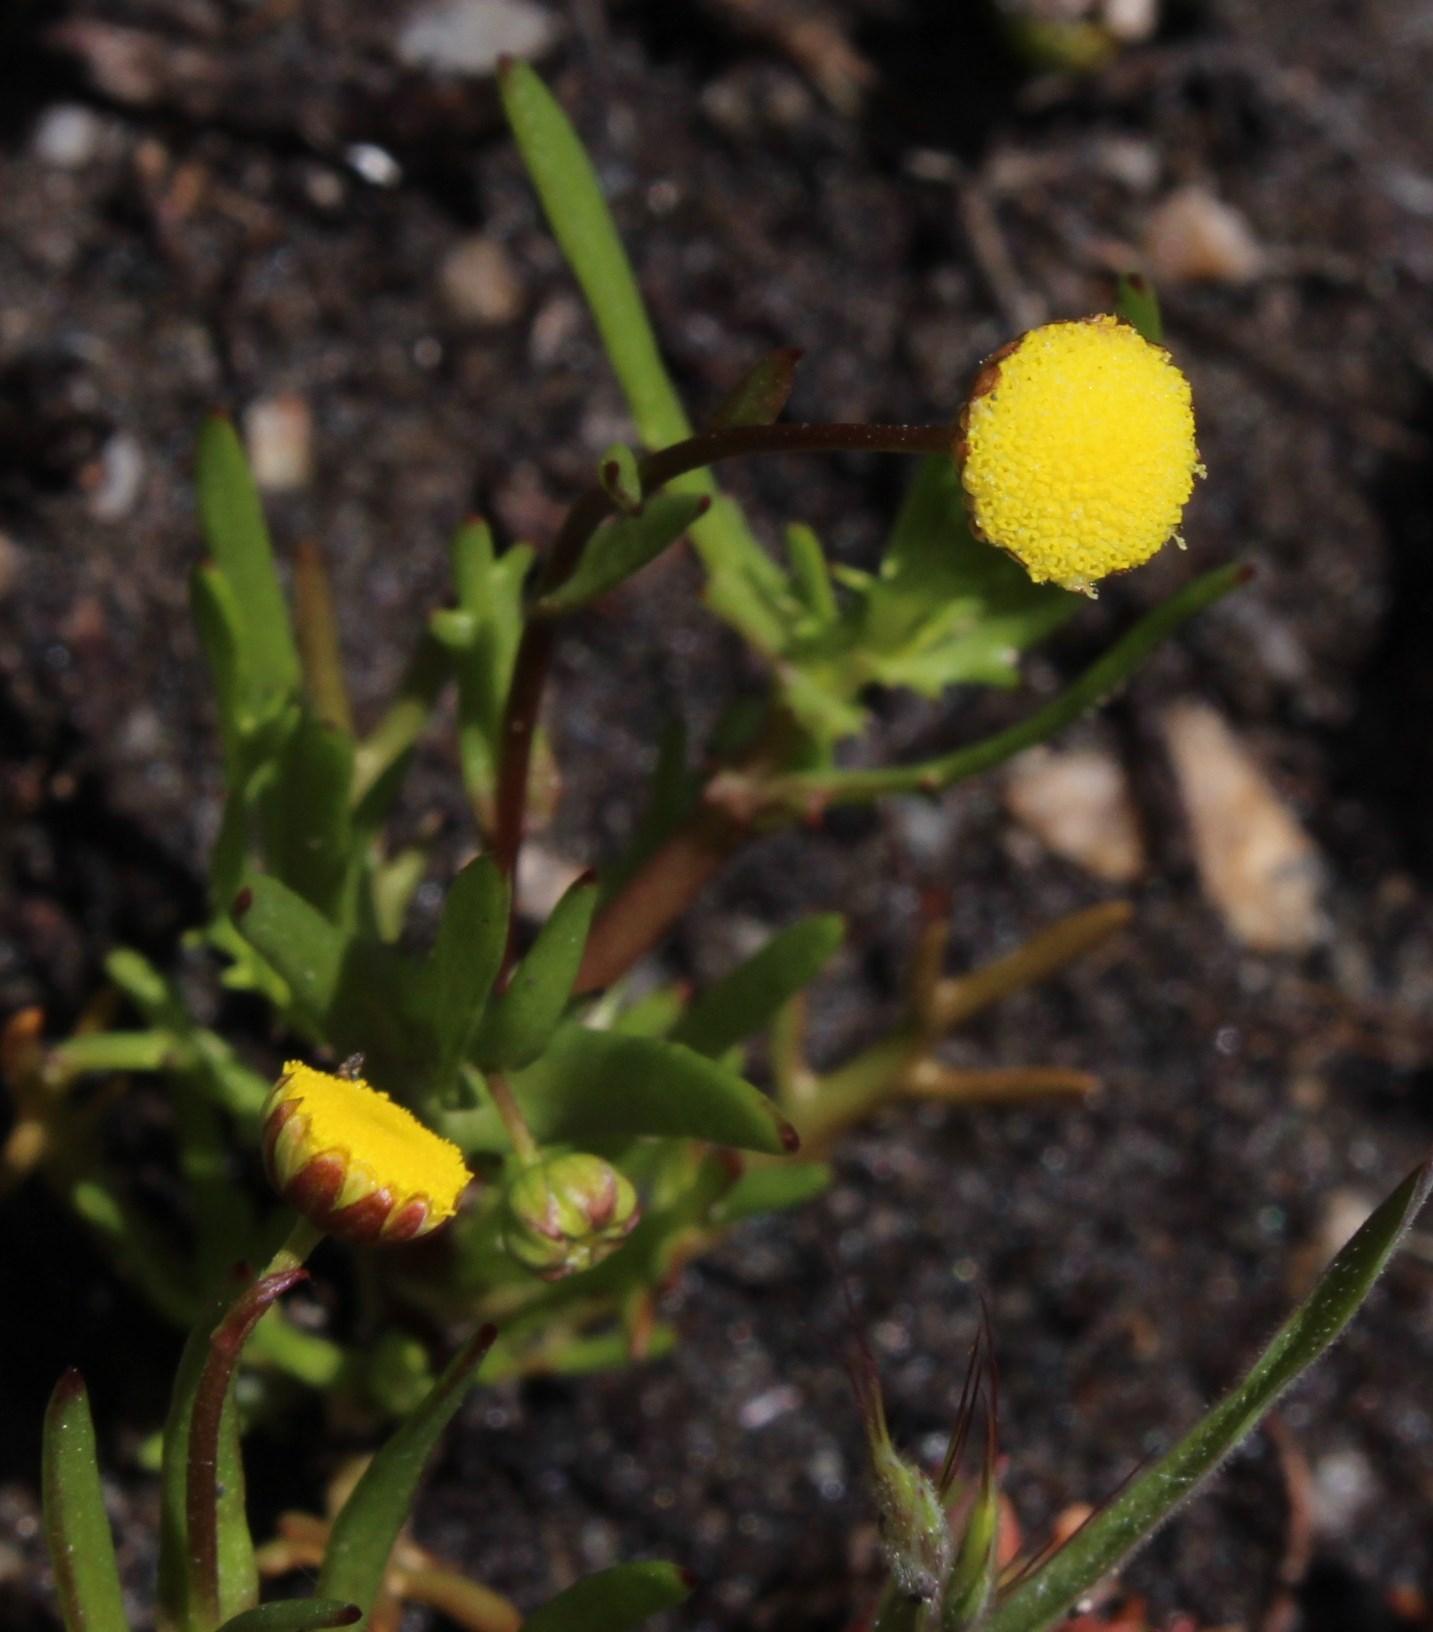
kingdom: Plantae
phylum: Tracheophyta
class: Magnoliopsida
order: Asterales
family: Asteraceae
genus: Cotula
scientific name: Cotula coronopifolia
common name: Buttonweed
